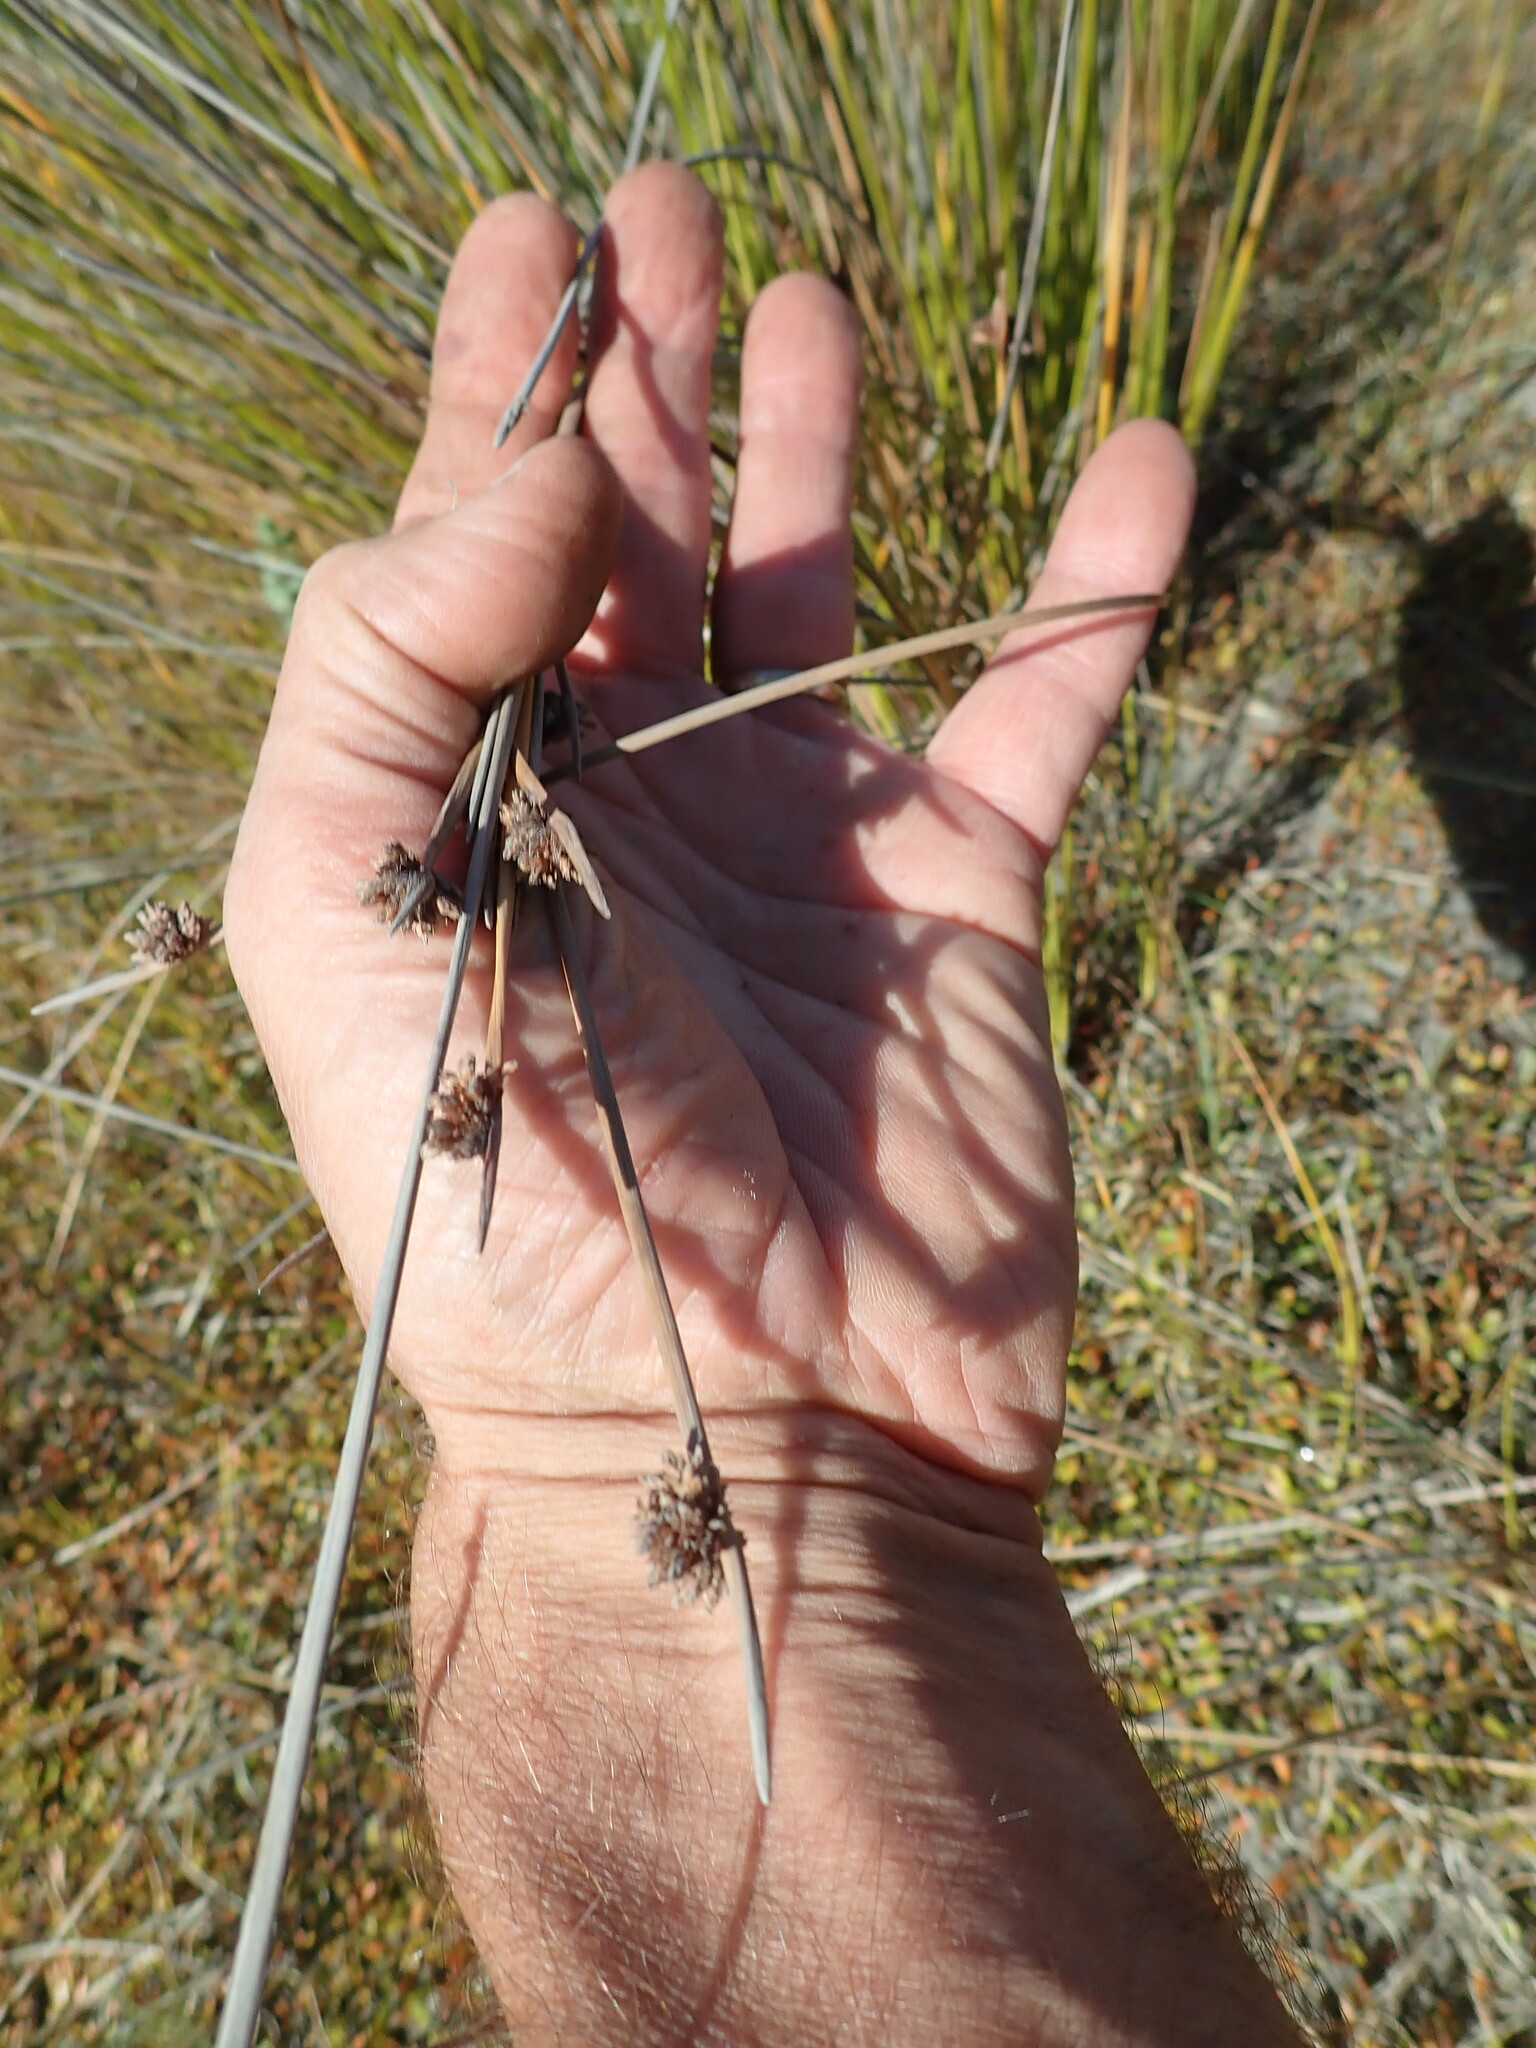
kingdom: Plantae
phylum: Tracheophyta
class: Liliopsida
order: Poales
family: Cyperaceae
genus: Ficinia
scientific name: Ficinia nodosa
